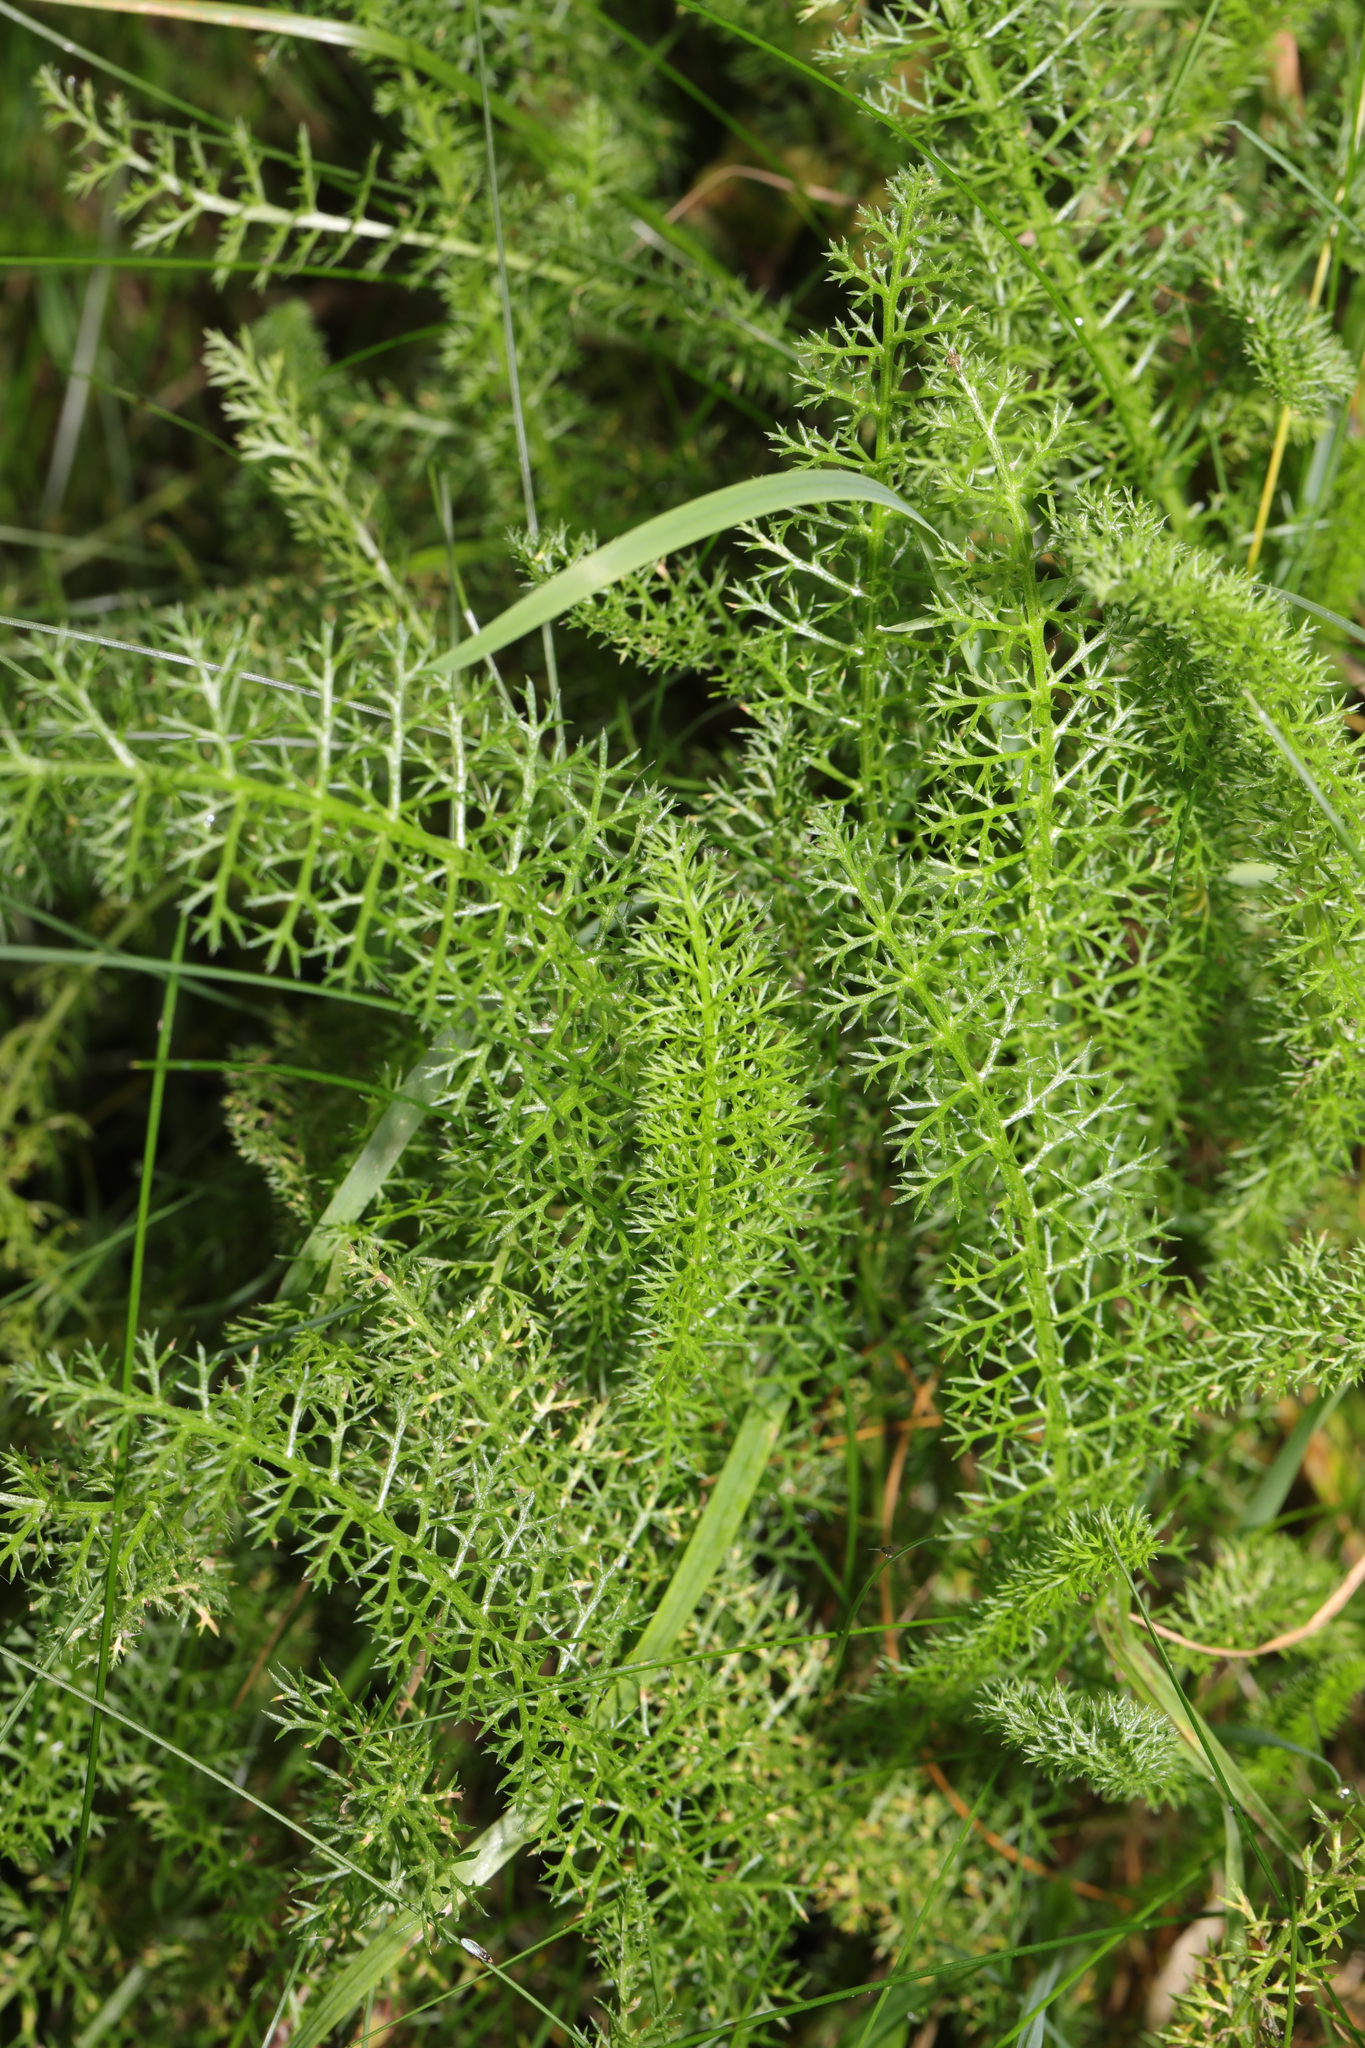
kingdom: Plantae
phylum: Tracheophyta
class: Magnoliopsida
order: Asterales
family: Asteraceae
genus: Achillea
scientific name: Achillea millefolium
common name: Yarrow
